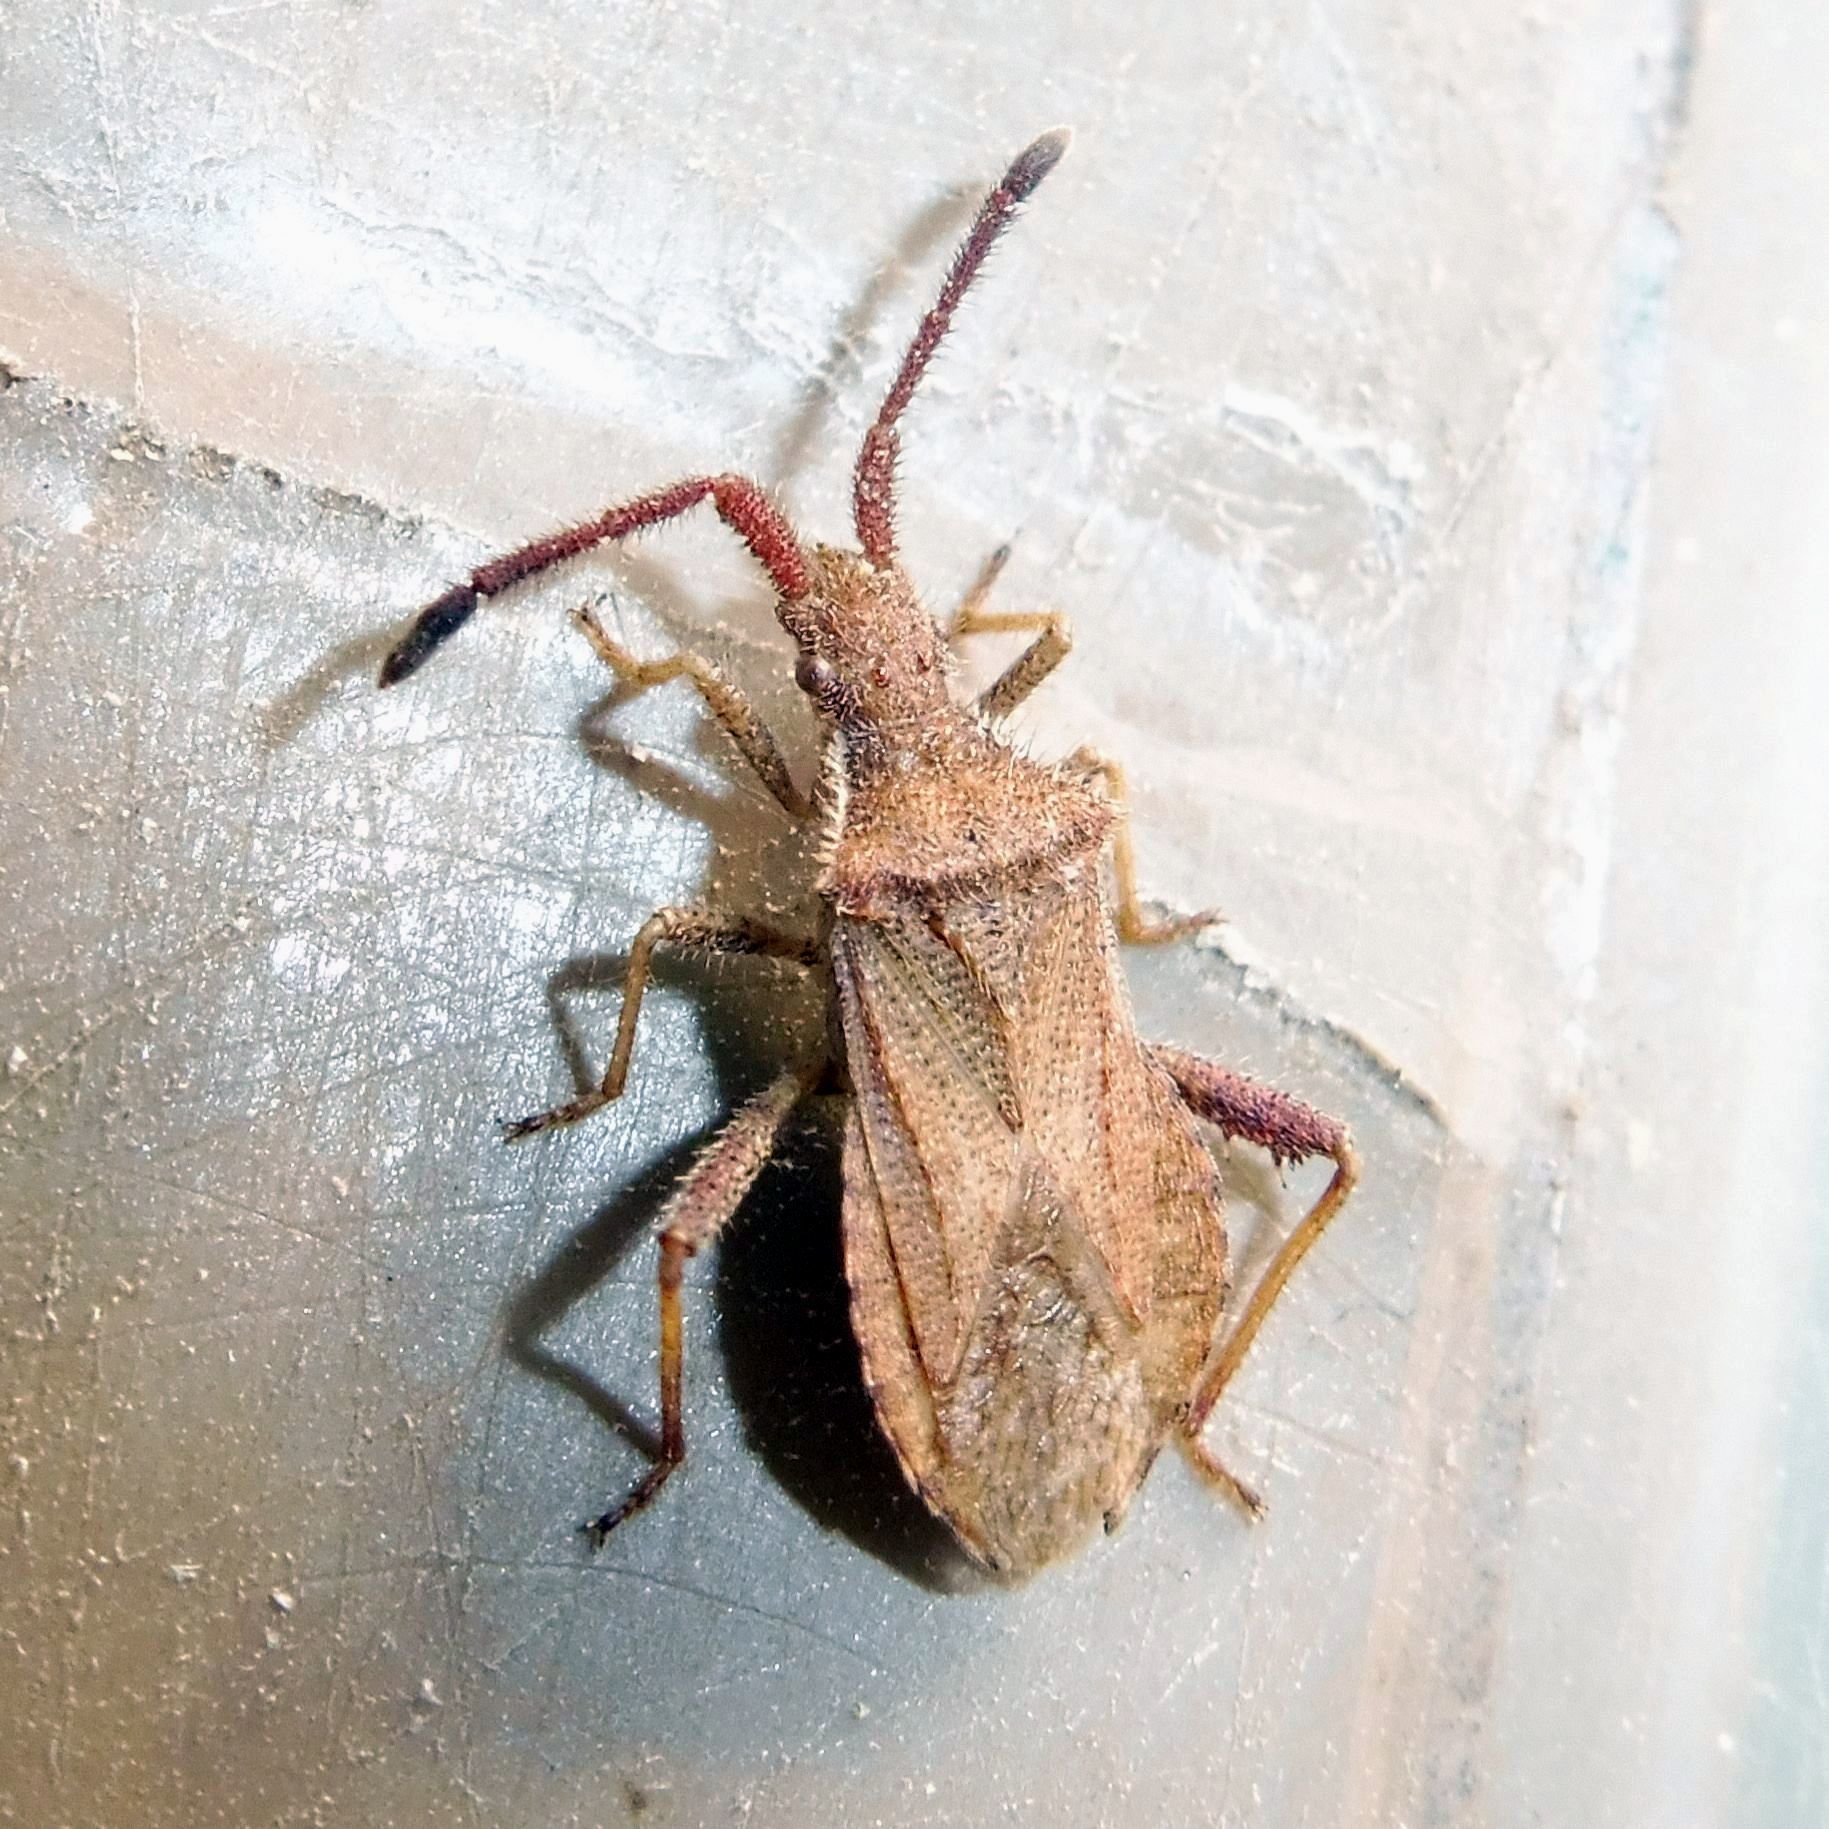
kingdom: Animalia
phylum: Arthropoda
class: Insecta
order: Hemiptera
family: Coreidae
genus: Coriomeris
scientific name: Coriomeris denticulatus
